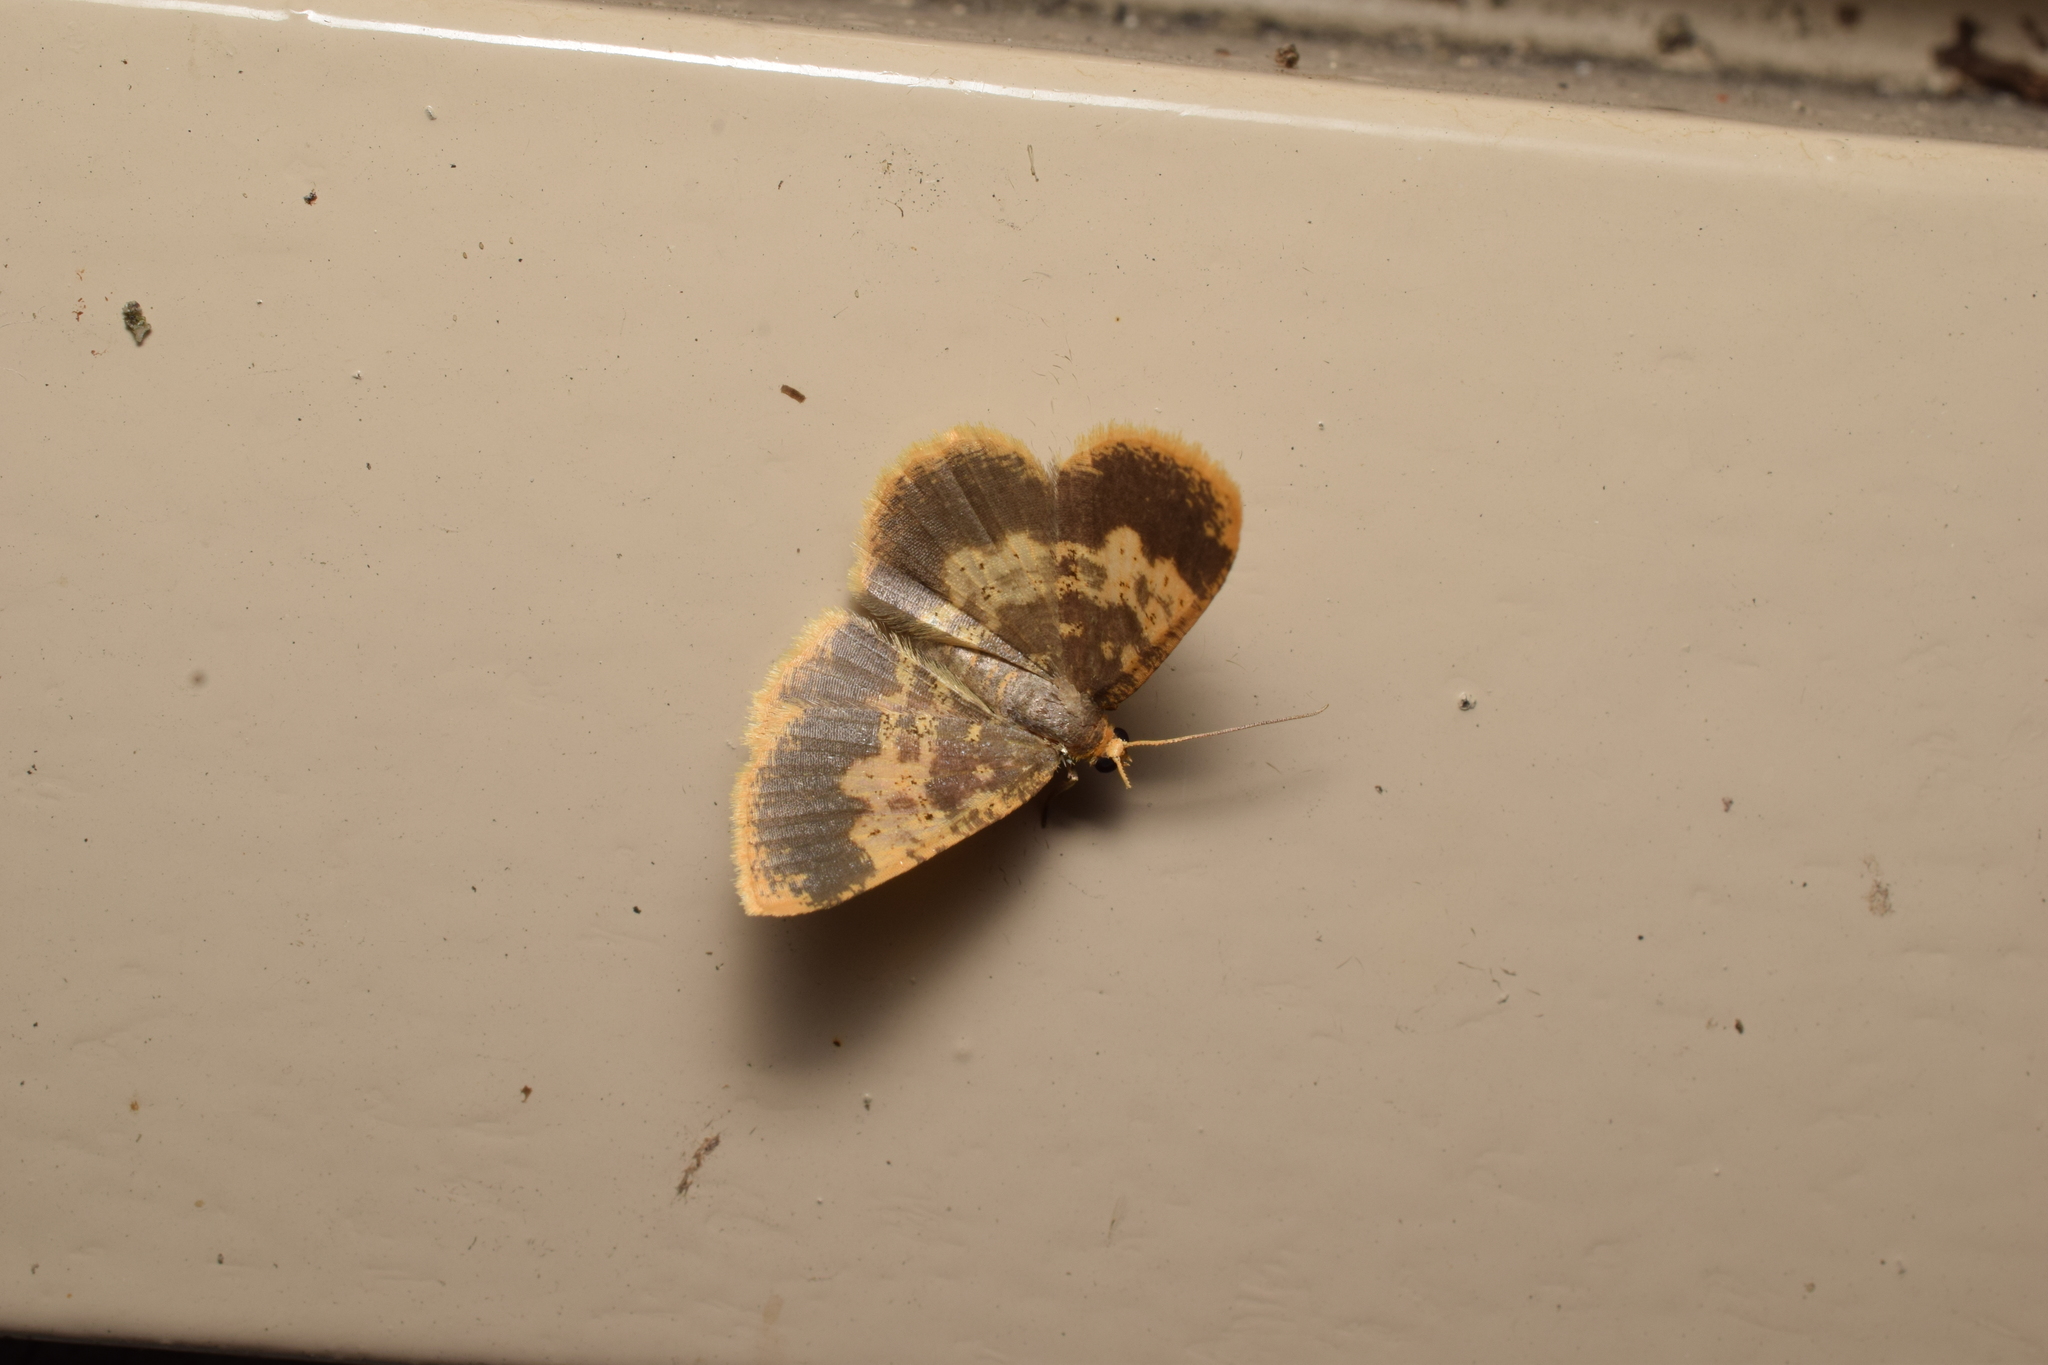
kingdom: Animalia
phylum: Arthropoda
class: Insecta
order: Lepidoptera
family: Geometridae
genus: Peratophyga
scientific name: Peratophyga grata
